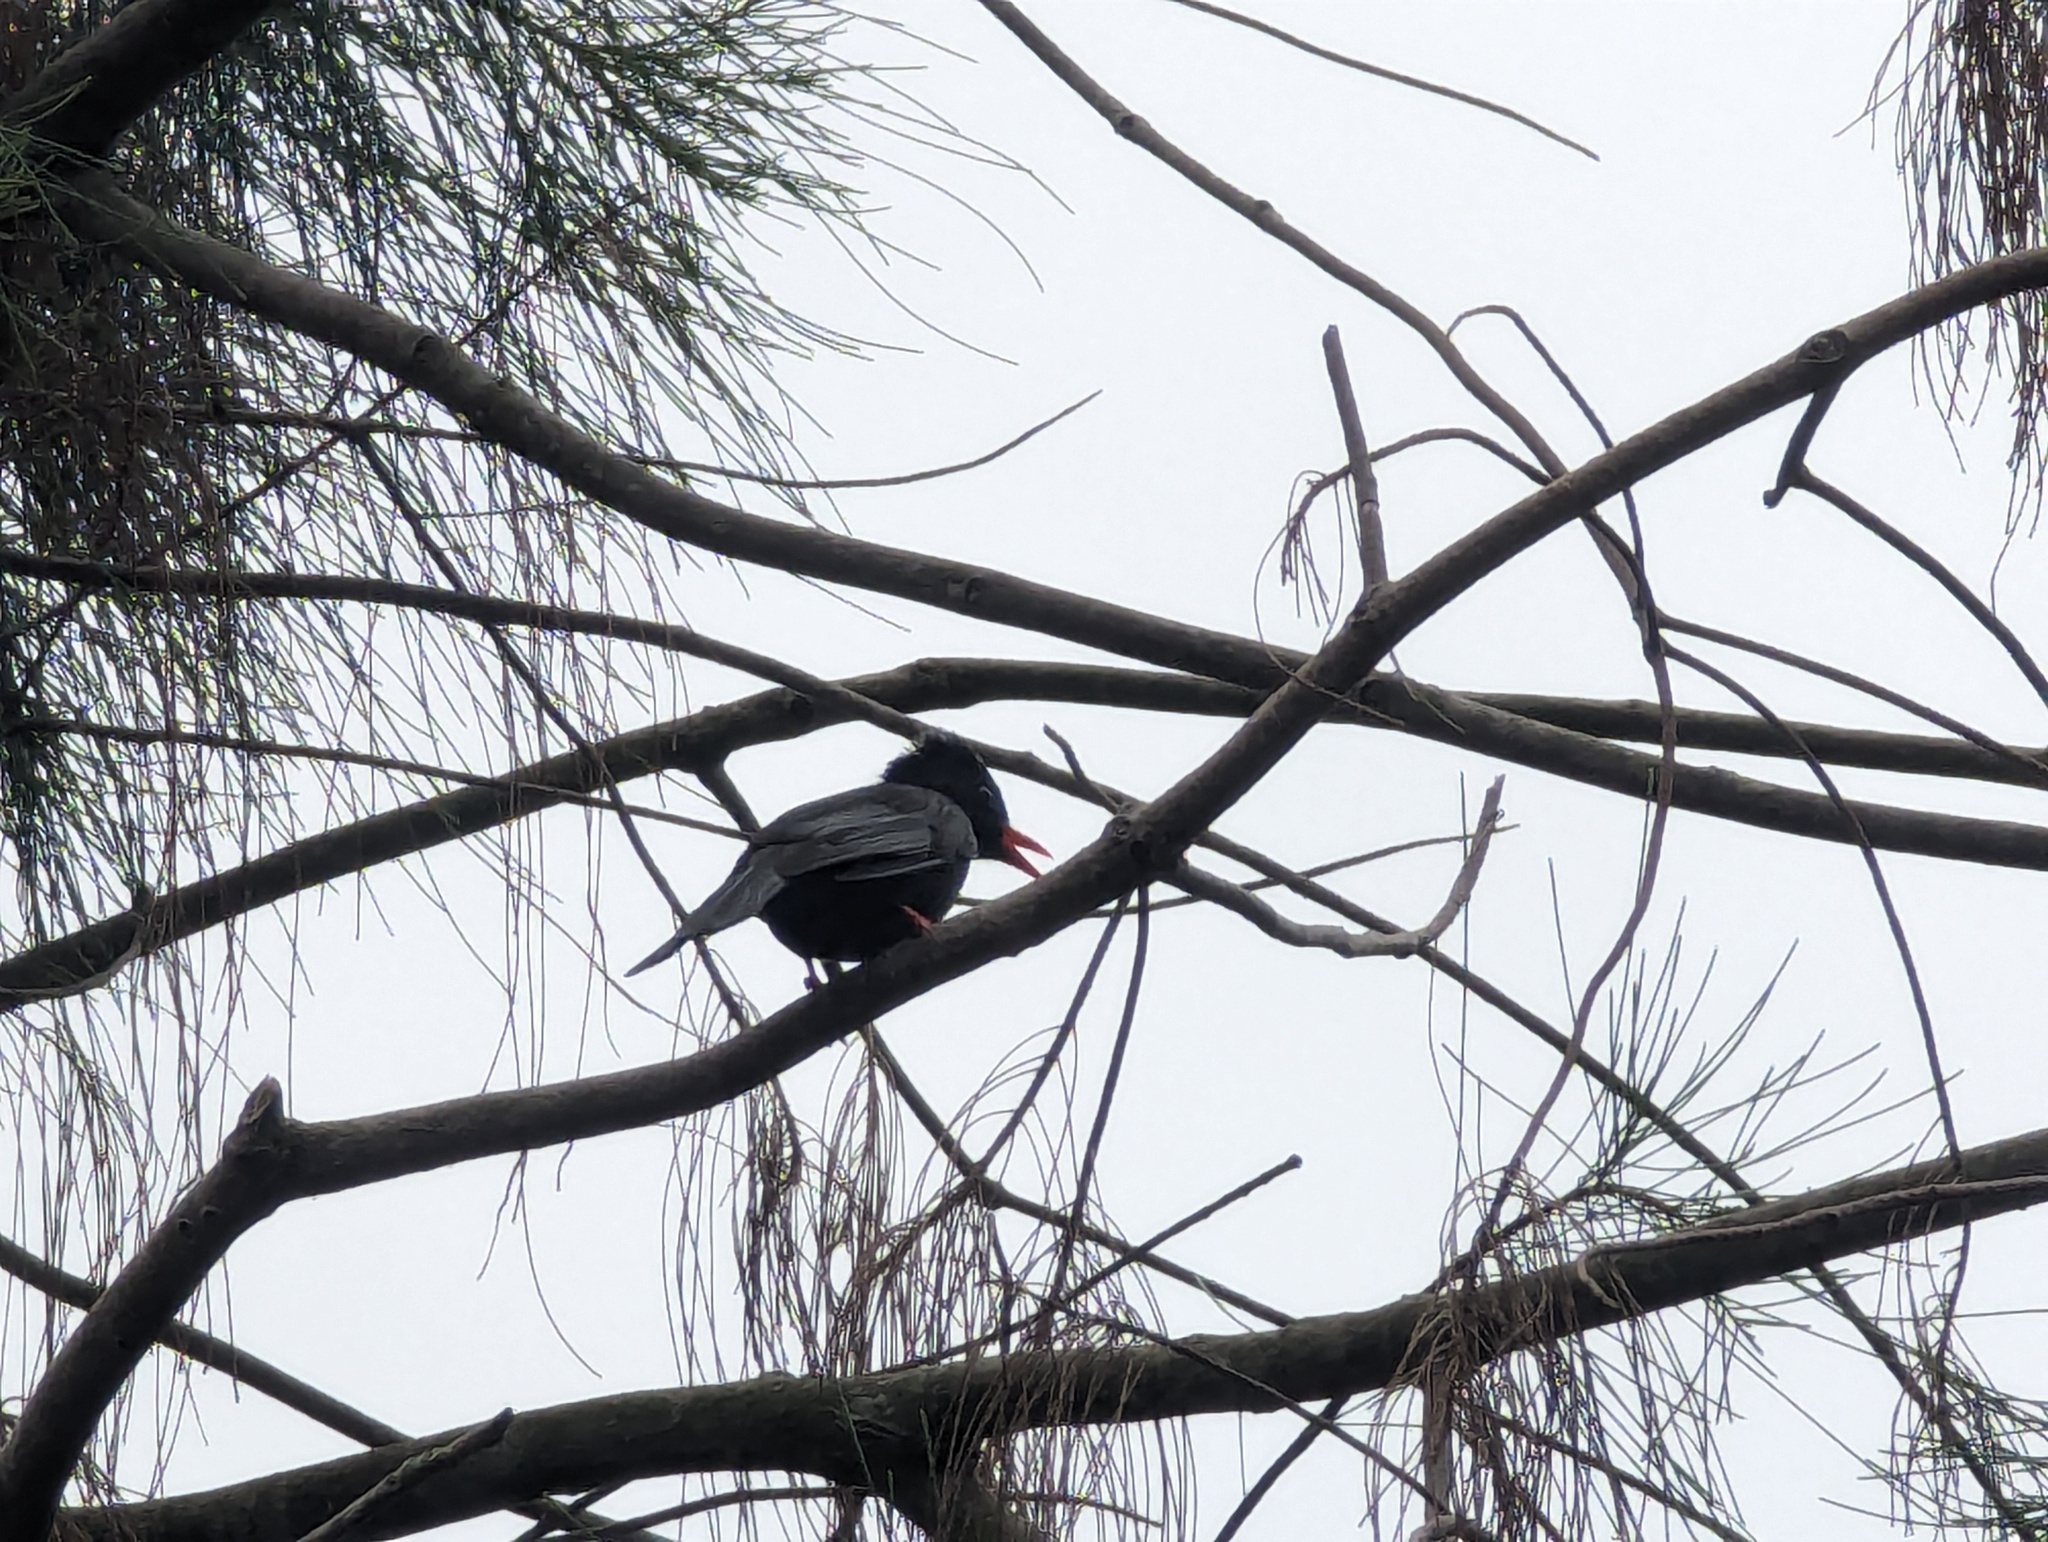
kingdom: Animalia
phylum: Chordata
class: Aves
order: Passeriformes
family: Pycnonotidae
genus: Hypsipetes
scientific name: Hypsipetes leucocephalus
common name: Black bulbul
